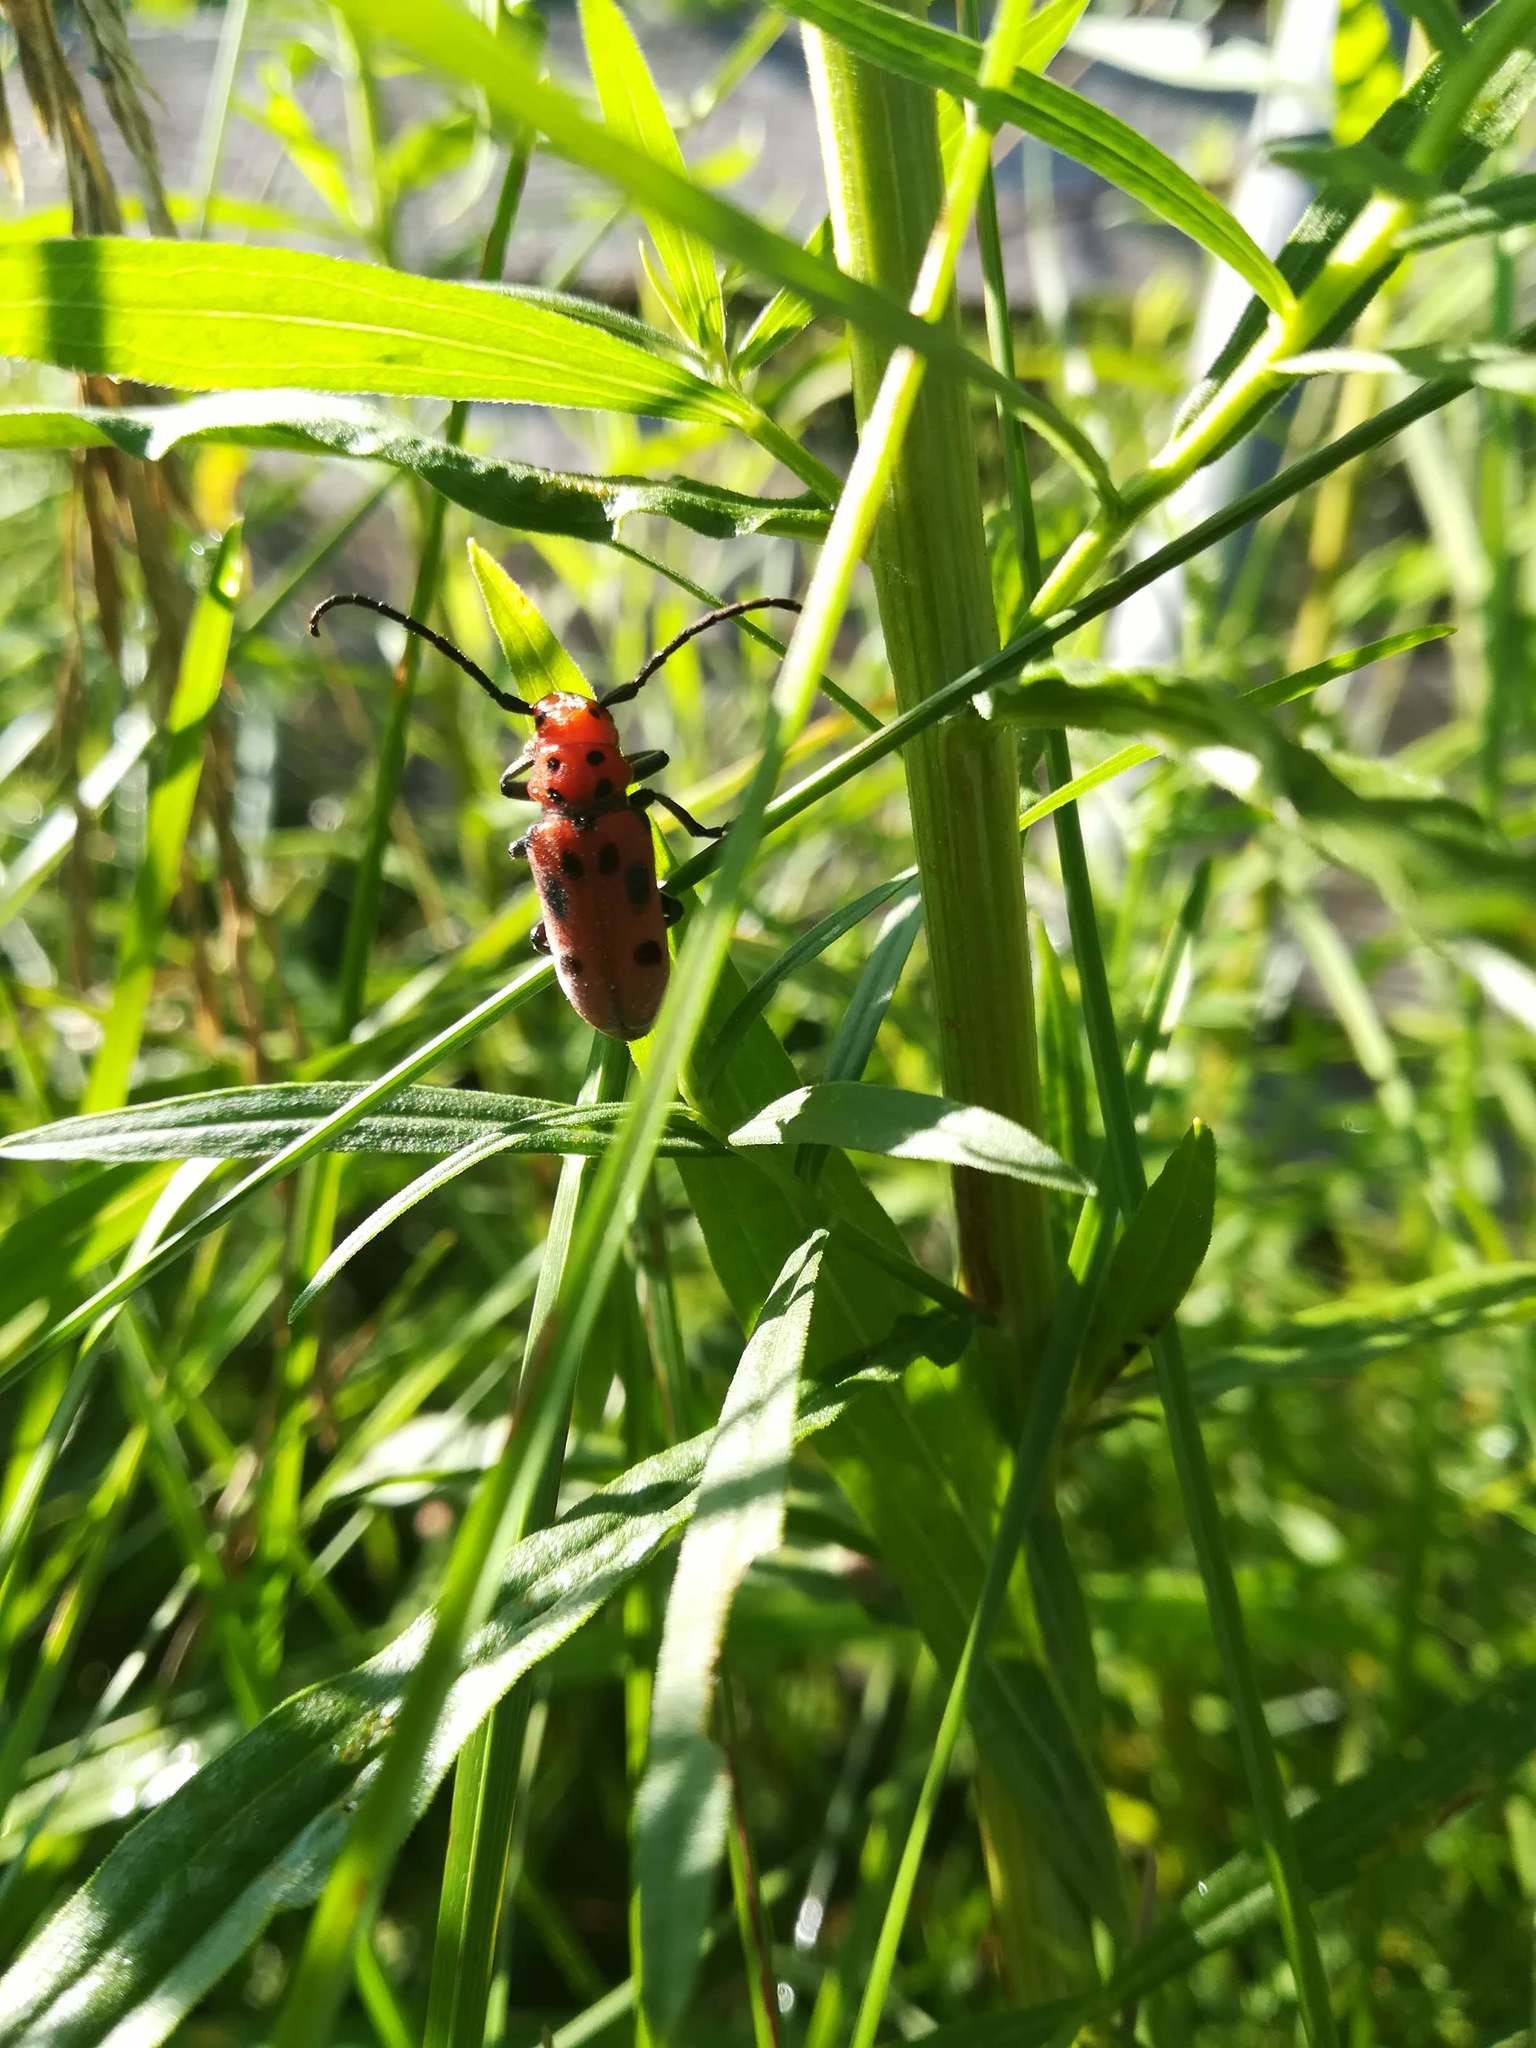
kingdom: Animalia
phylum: Arthropoda
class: Insecta
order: Coleoptera
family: Cerambycidae
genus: Tetraopes
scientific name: Tetraopes tetrophthalmus
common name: Red milkweed beetle
